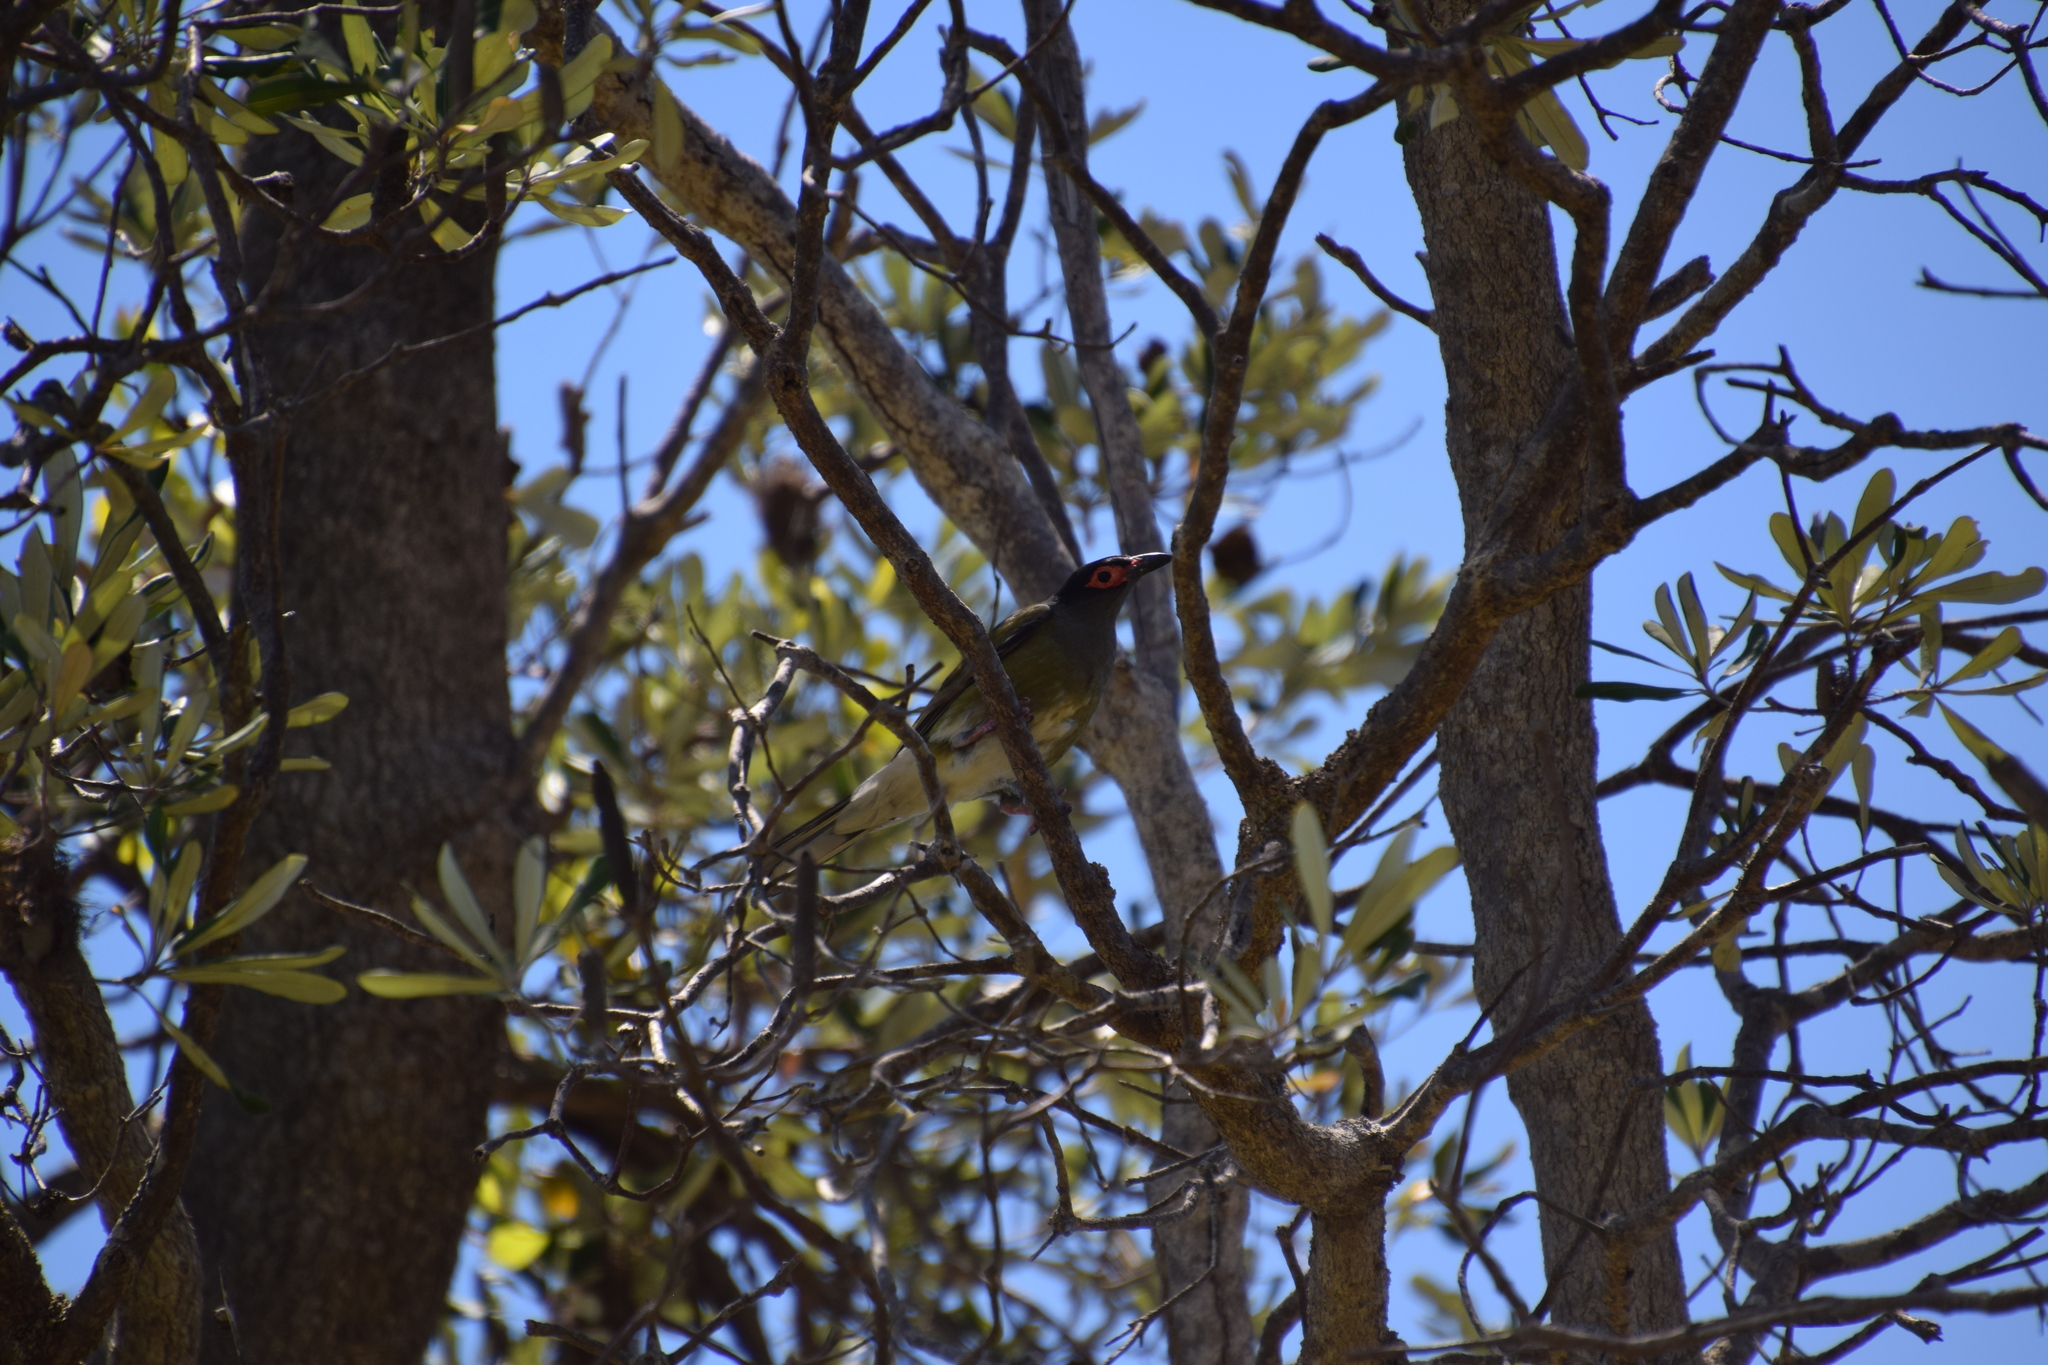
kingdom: Animalia
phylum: Chordata
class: Aves
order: Passeriformes
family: Oriolidae
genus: Sphecotheres
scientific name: Sphecotheres vieilloti
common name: Australasian figbird
